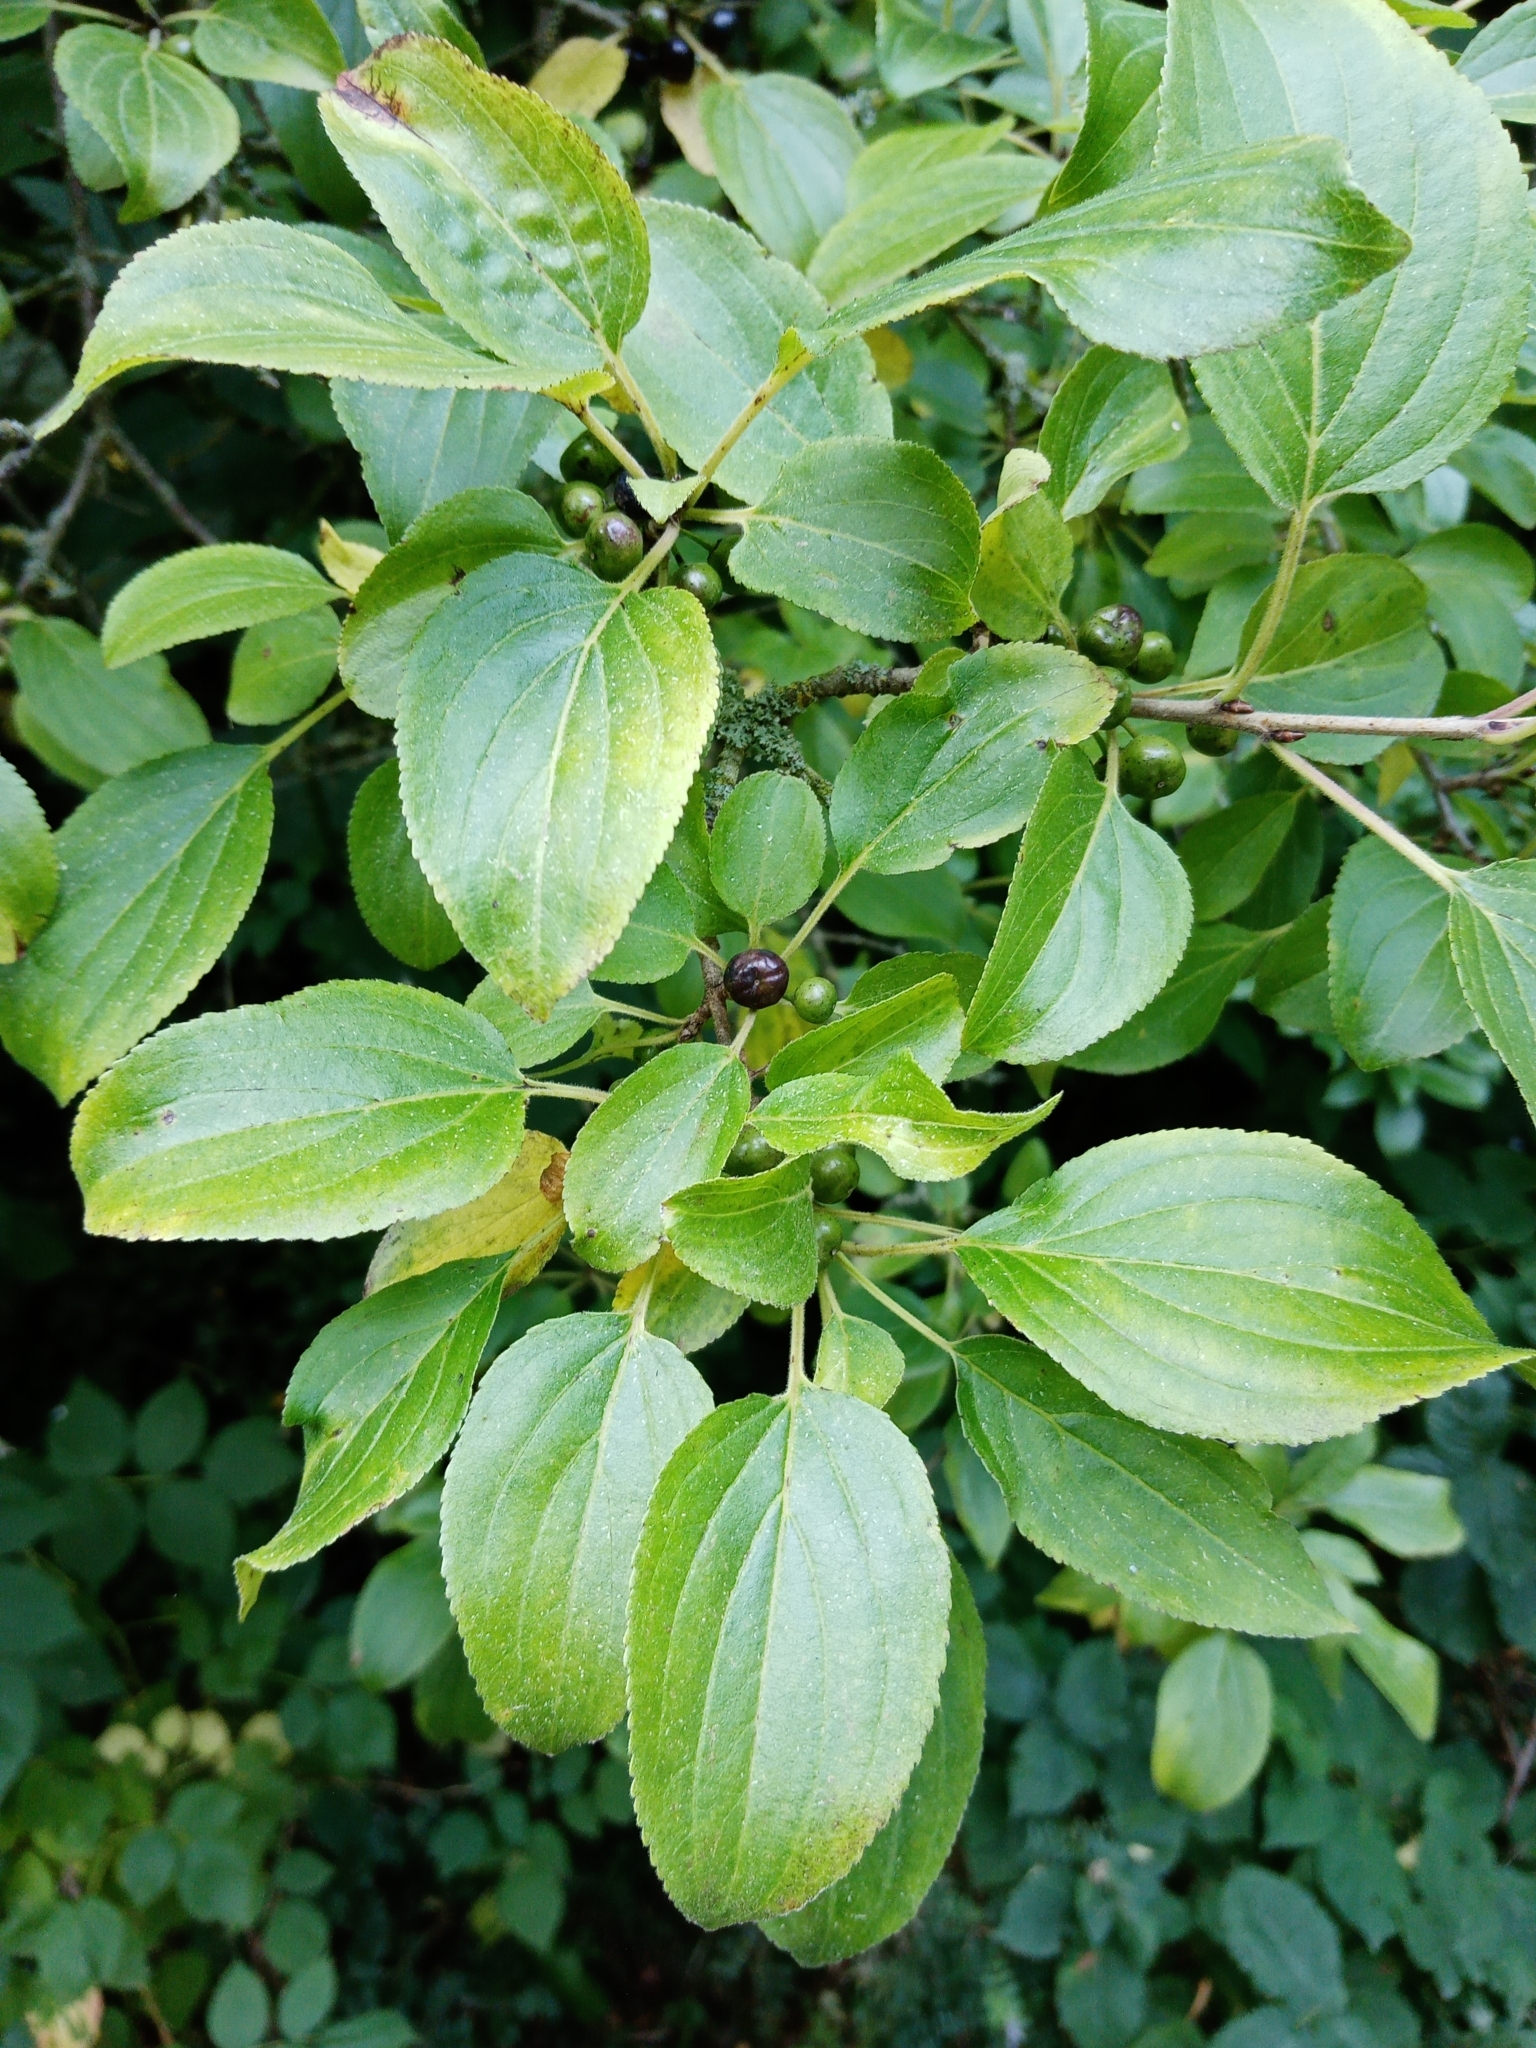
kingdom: Plantae
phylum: Tracheophyta
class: Magnoliopsida
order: Rosales
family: Rhamnaceae
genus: Rhamnus
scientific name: Rhamnus cathartica
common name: Common buckthorn
